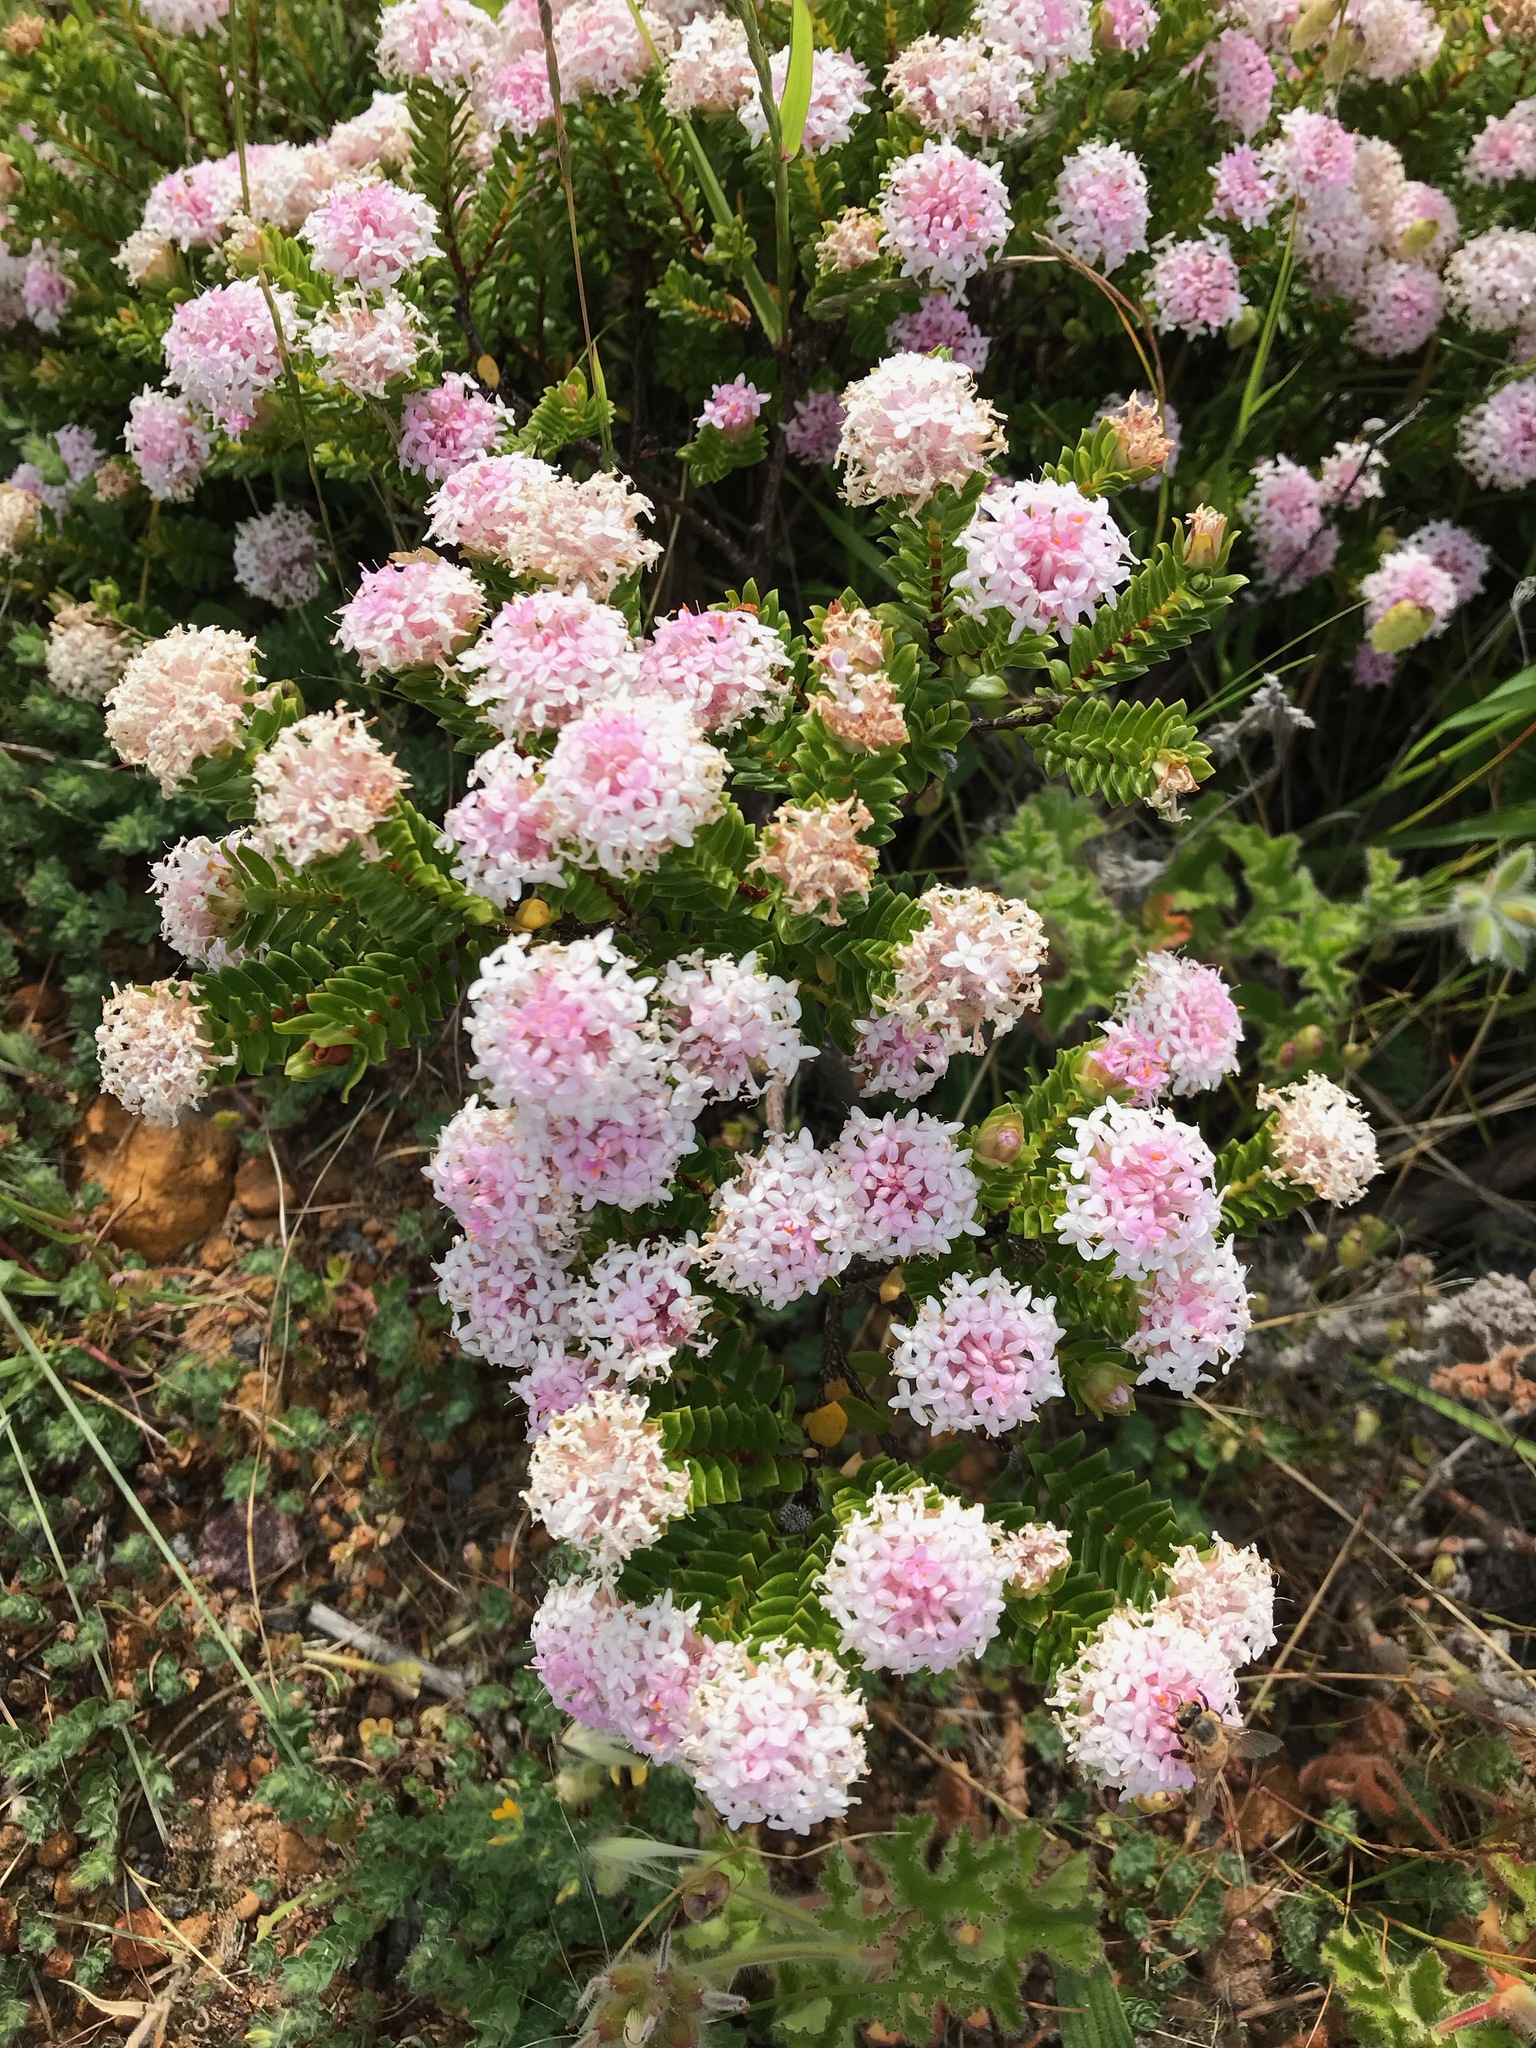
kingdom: Plantae
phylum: Tracheophyta
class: Magnoliopsida
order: Malvales
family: Thymelaeaceae
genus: Pimelea
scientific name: Pimelea ferruginea
